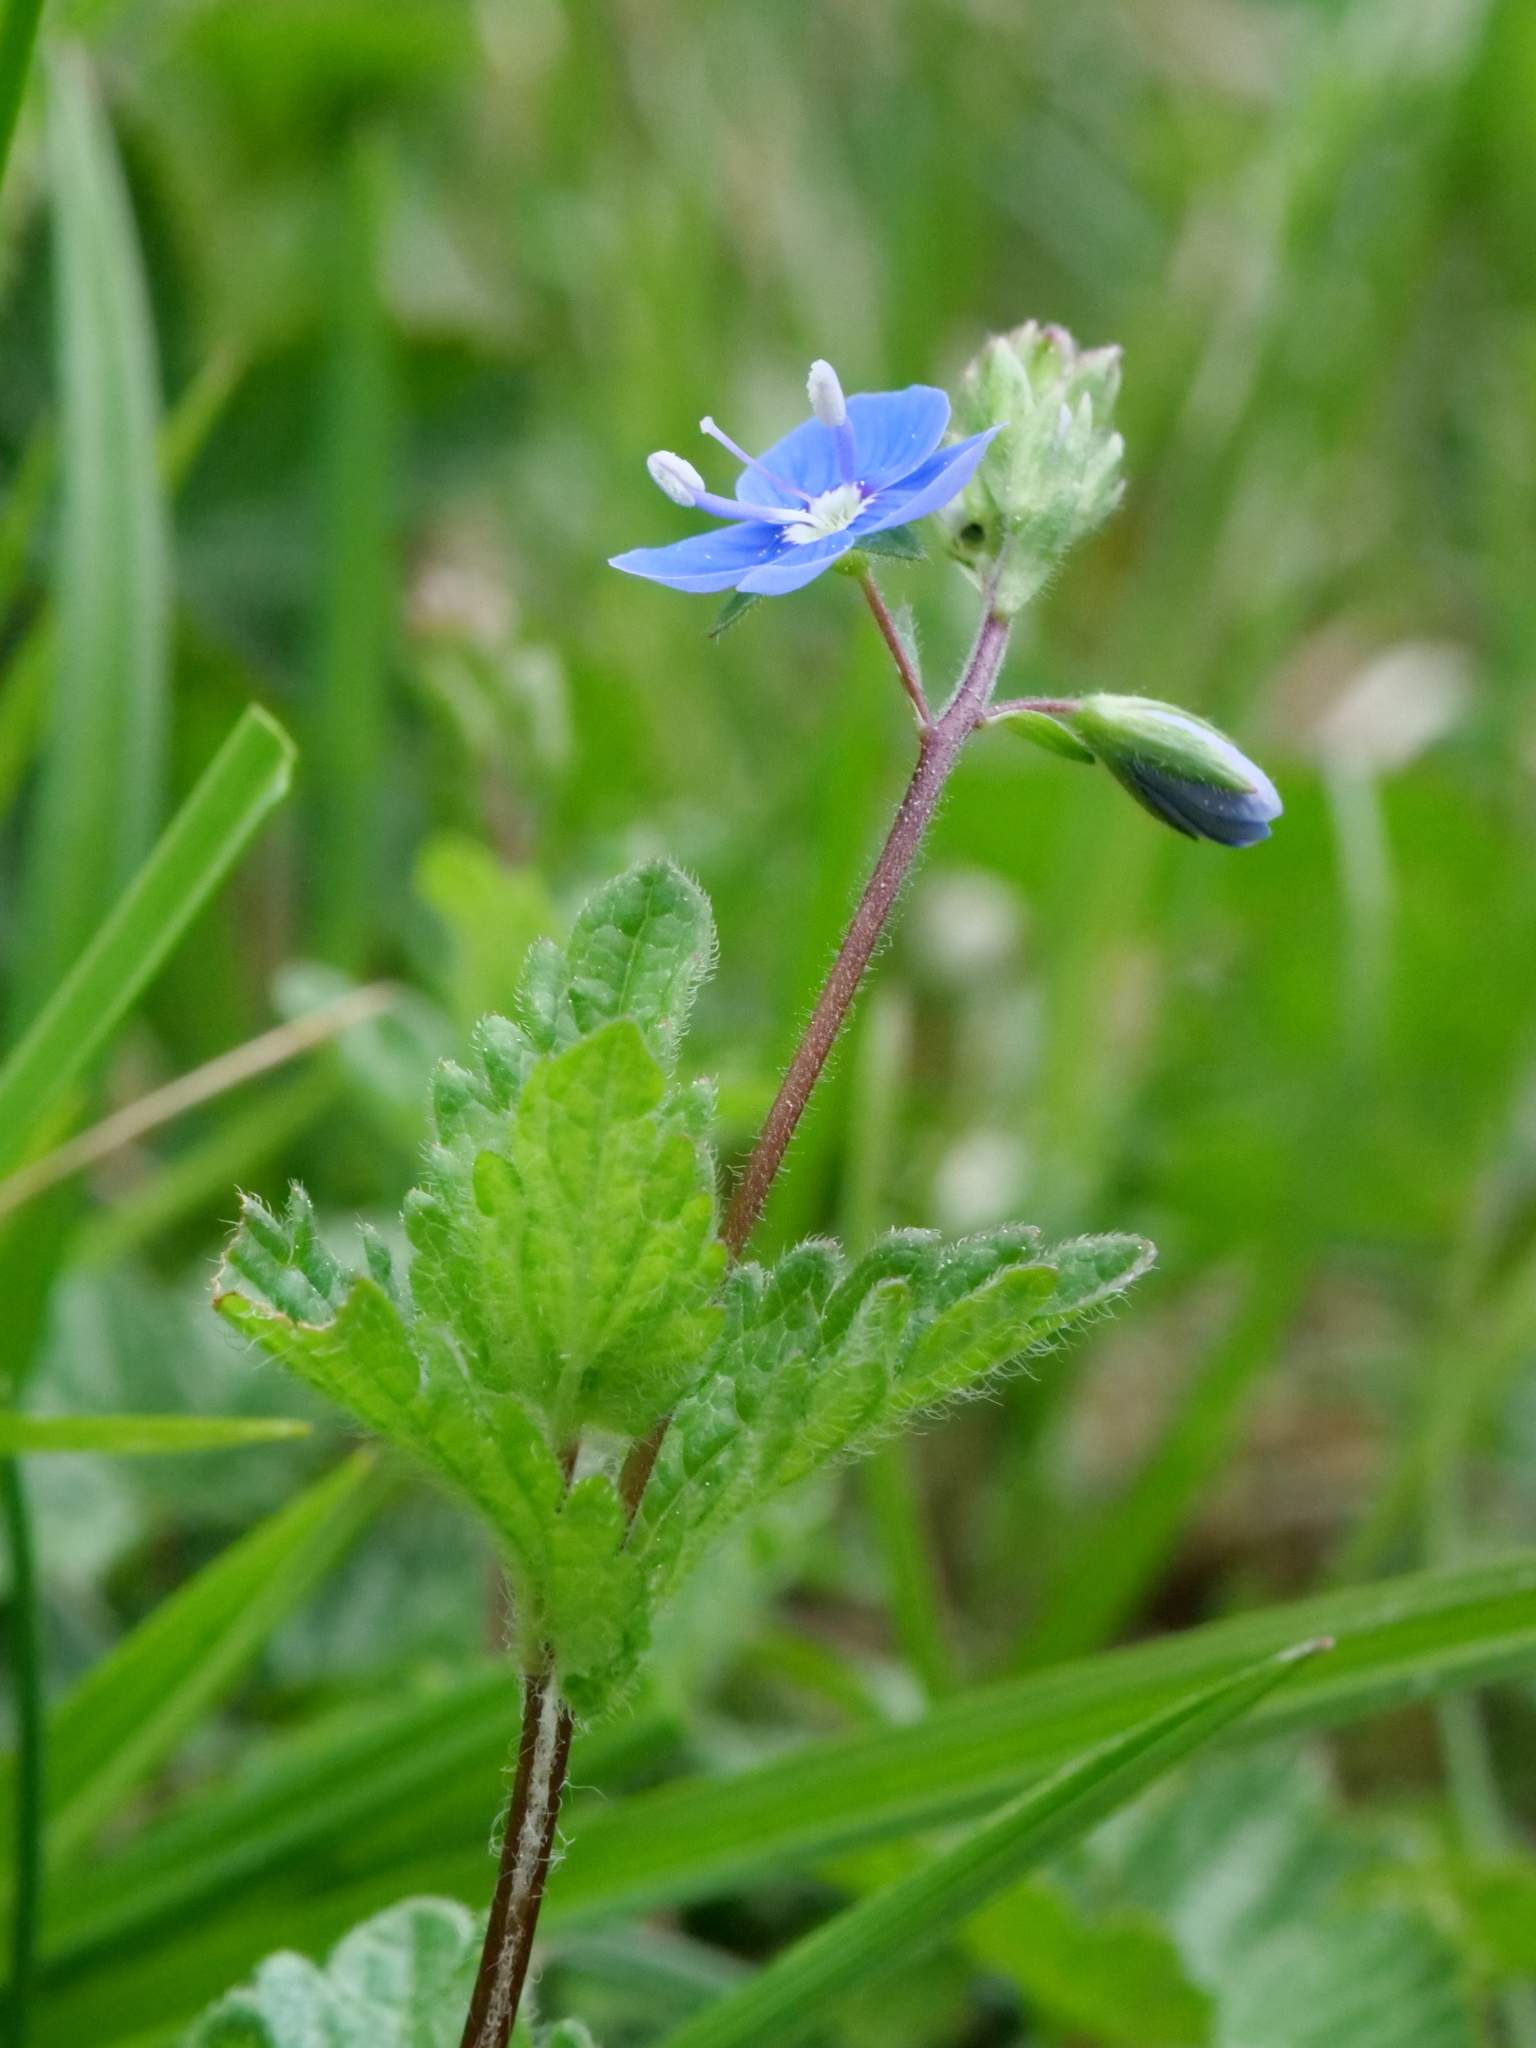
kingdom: Plantae
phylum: Tracheophyta
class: Magnoliopsida
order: Lamiales
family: Plantaginaceae
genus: Veronica
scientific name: Veronica chamaedrys
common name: Germander speedwell
